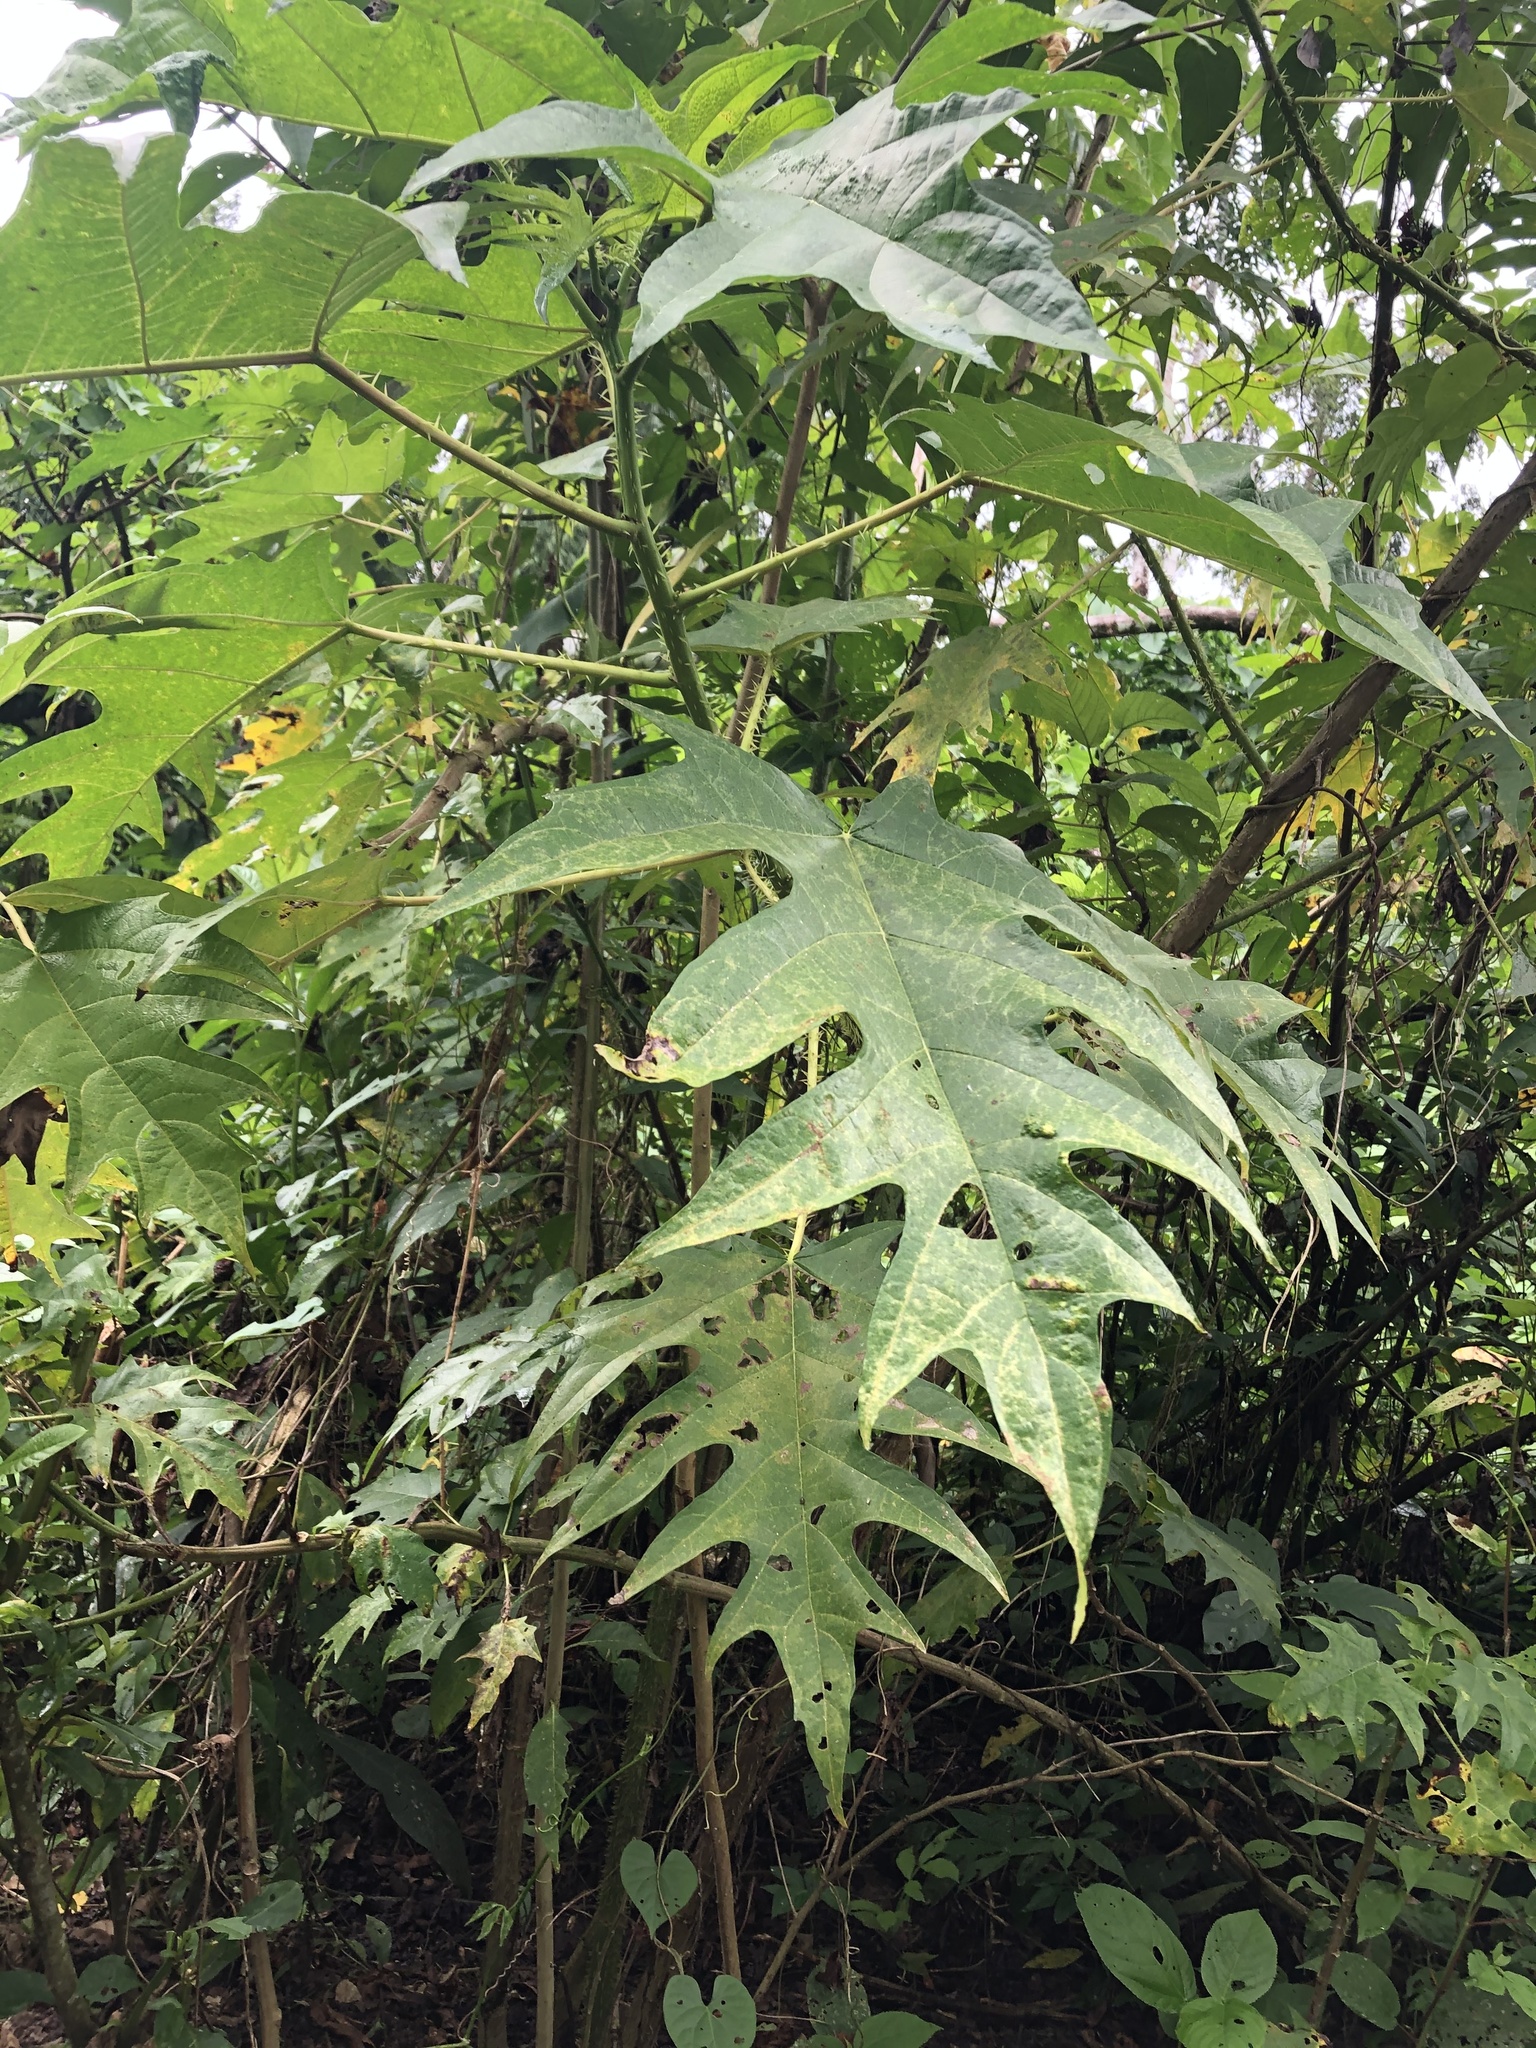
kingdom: Plantae
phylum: Tracheophyta
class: Magnoliopsida
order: Rosales
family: Urticaceae
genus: Urera
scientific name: Urera laciniata
